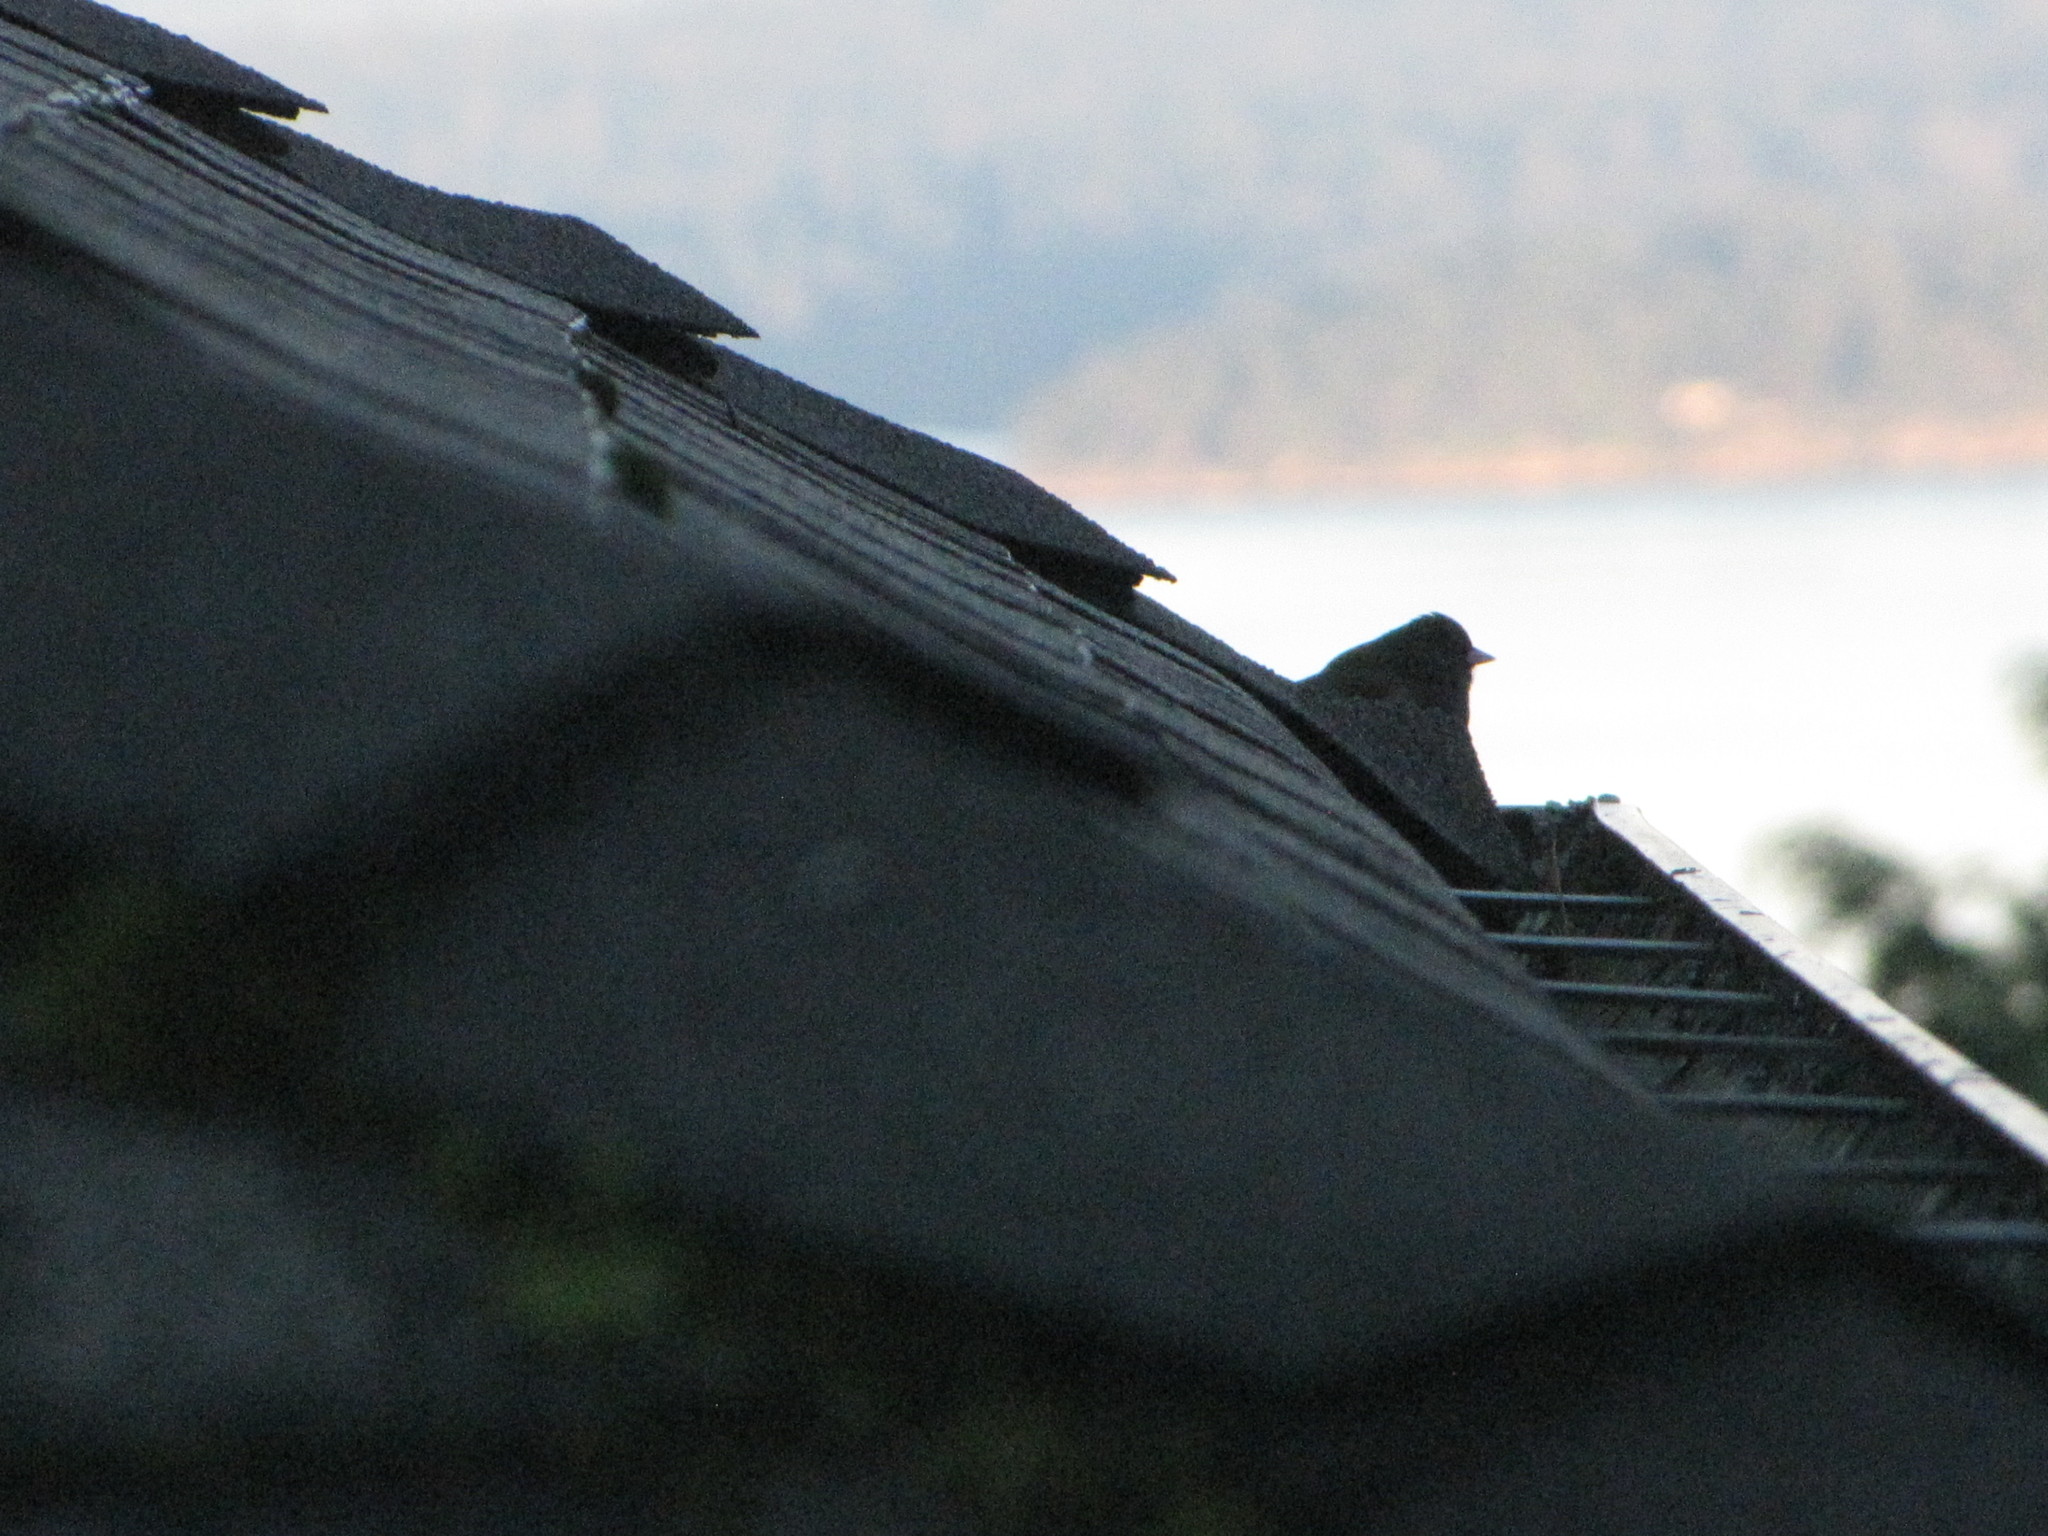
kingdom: Animalia
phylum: Chordata
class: Aves
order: Passeriformes
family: Passerellidae
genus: Junco
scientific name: Junco hyemalis
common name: Dark-eyed junco
